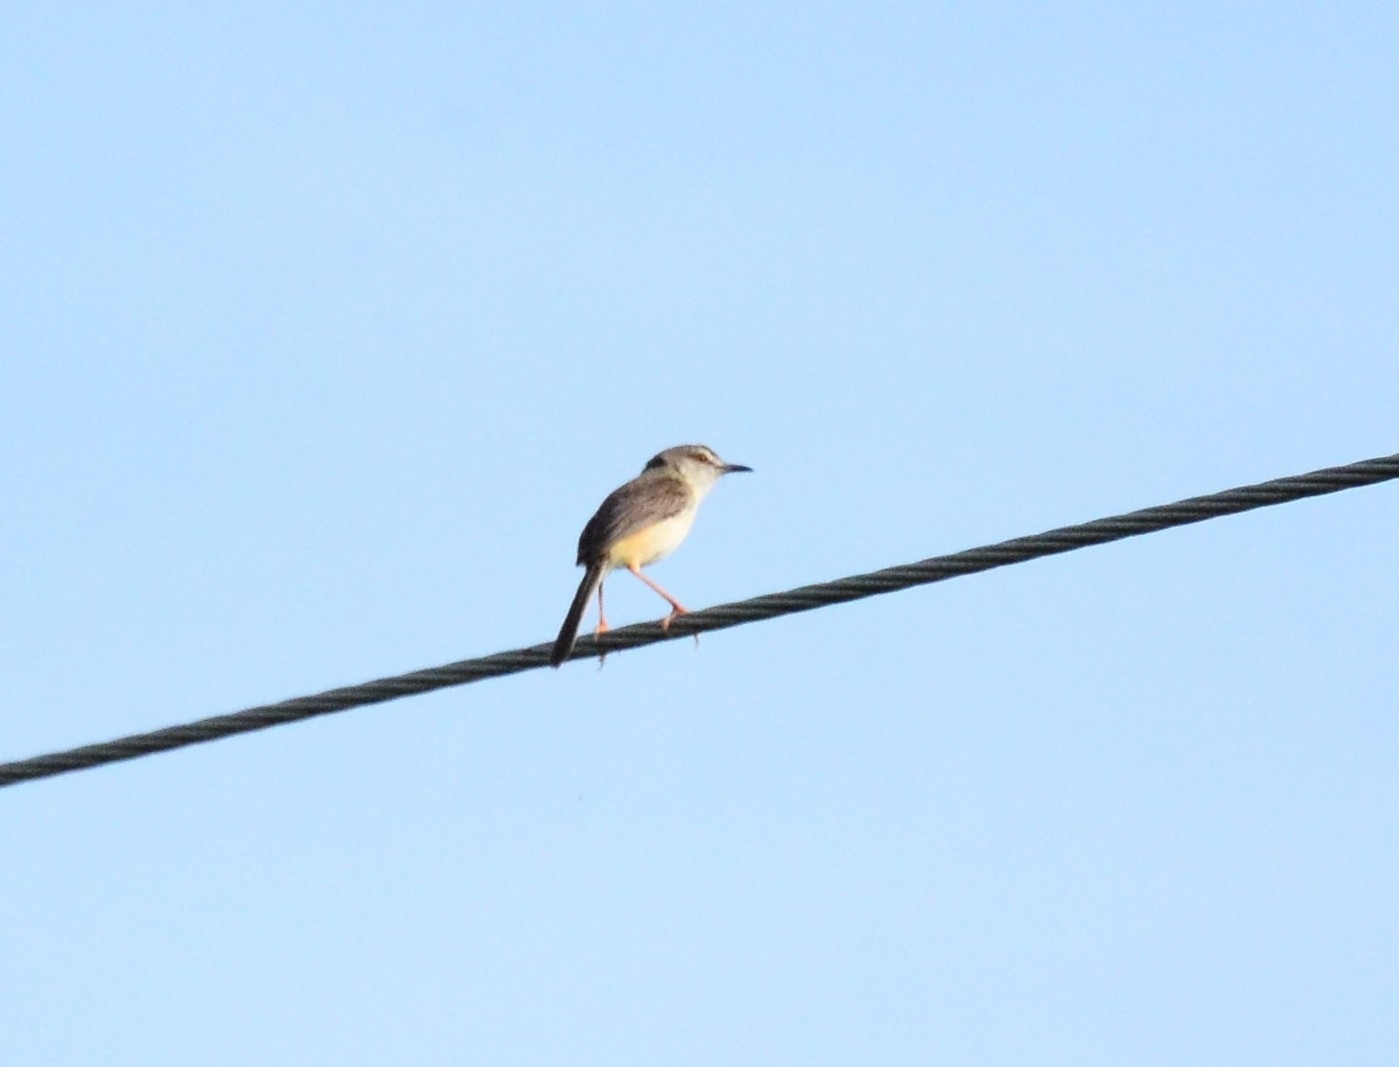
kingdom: Animalia
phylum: Chordata
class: Aves
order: Passeriformes
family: Cisticolidae
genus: Prinia
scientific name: Prinia inornata
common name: Plain prinia
